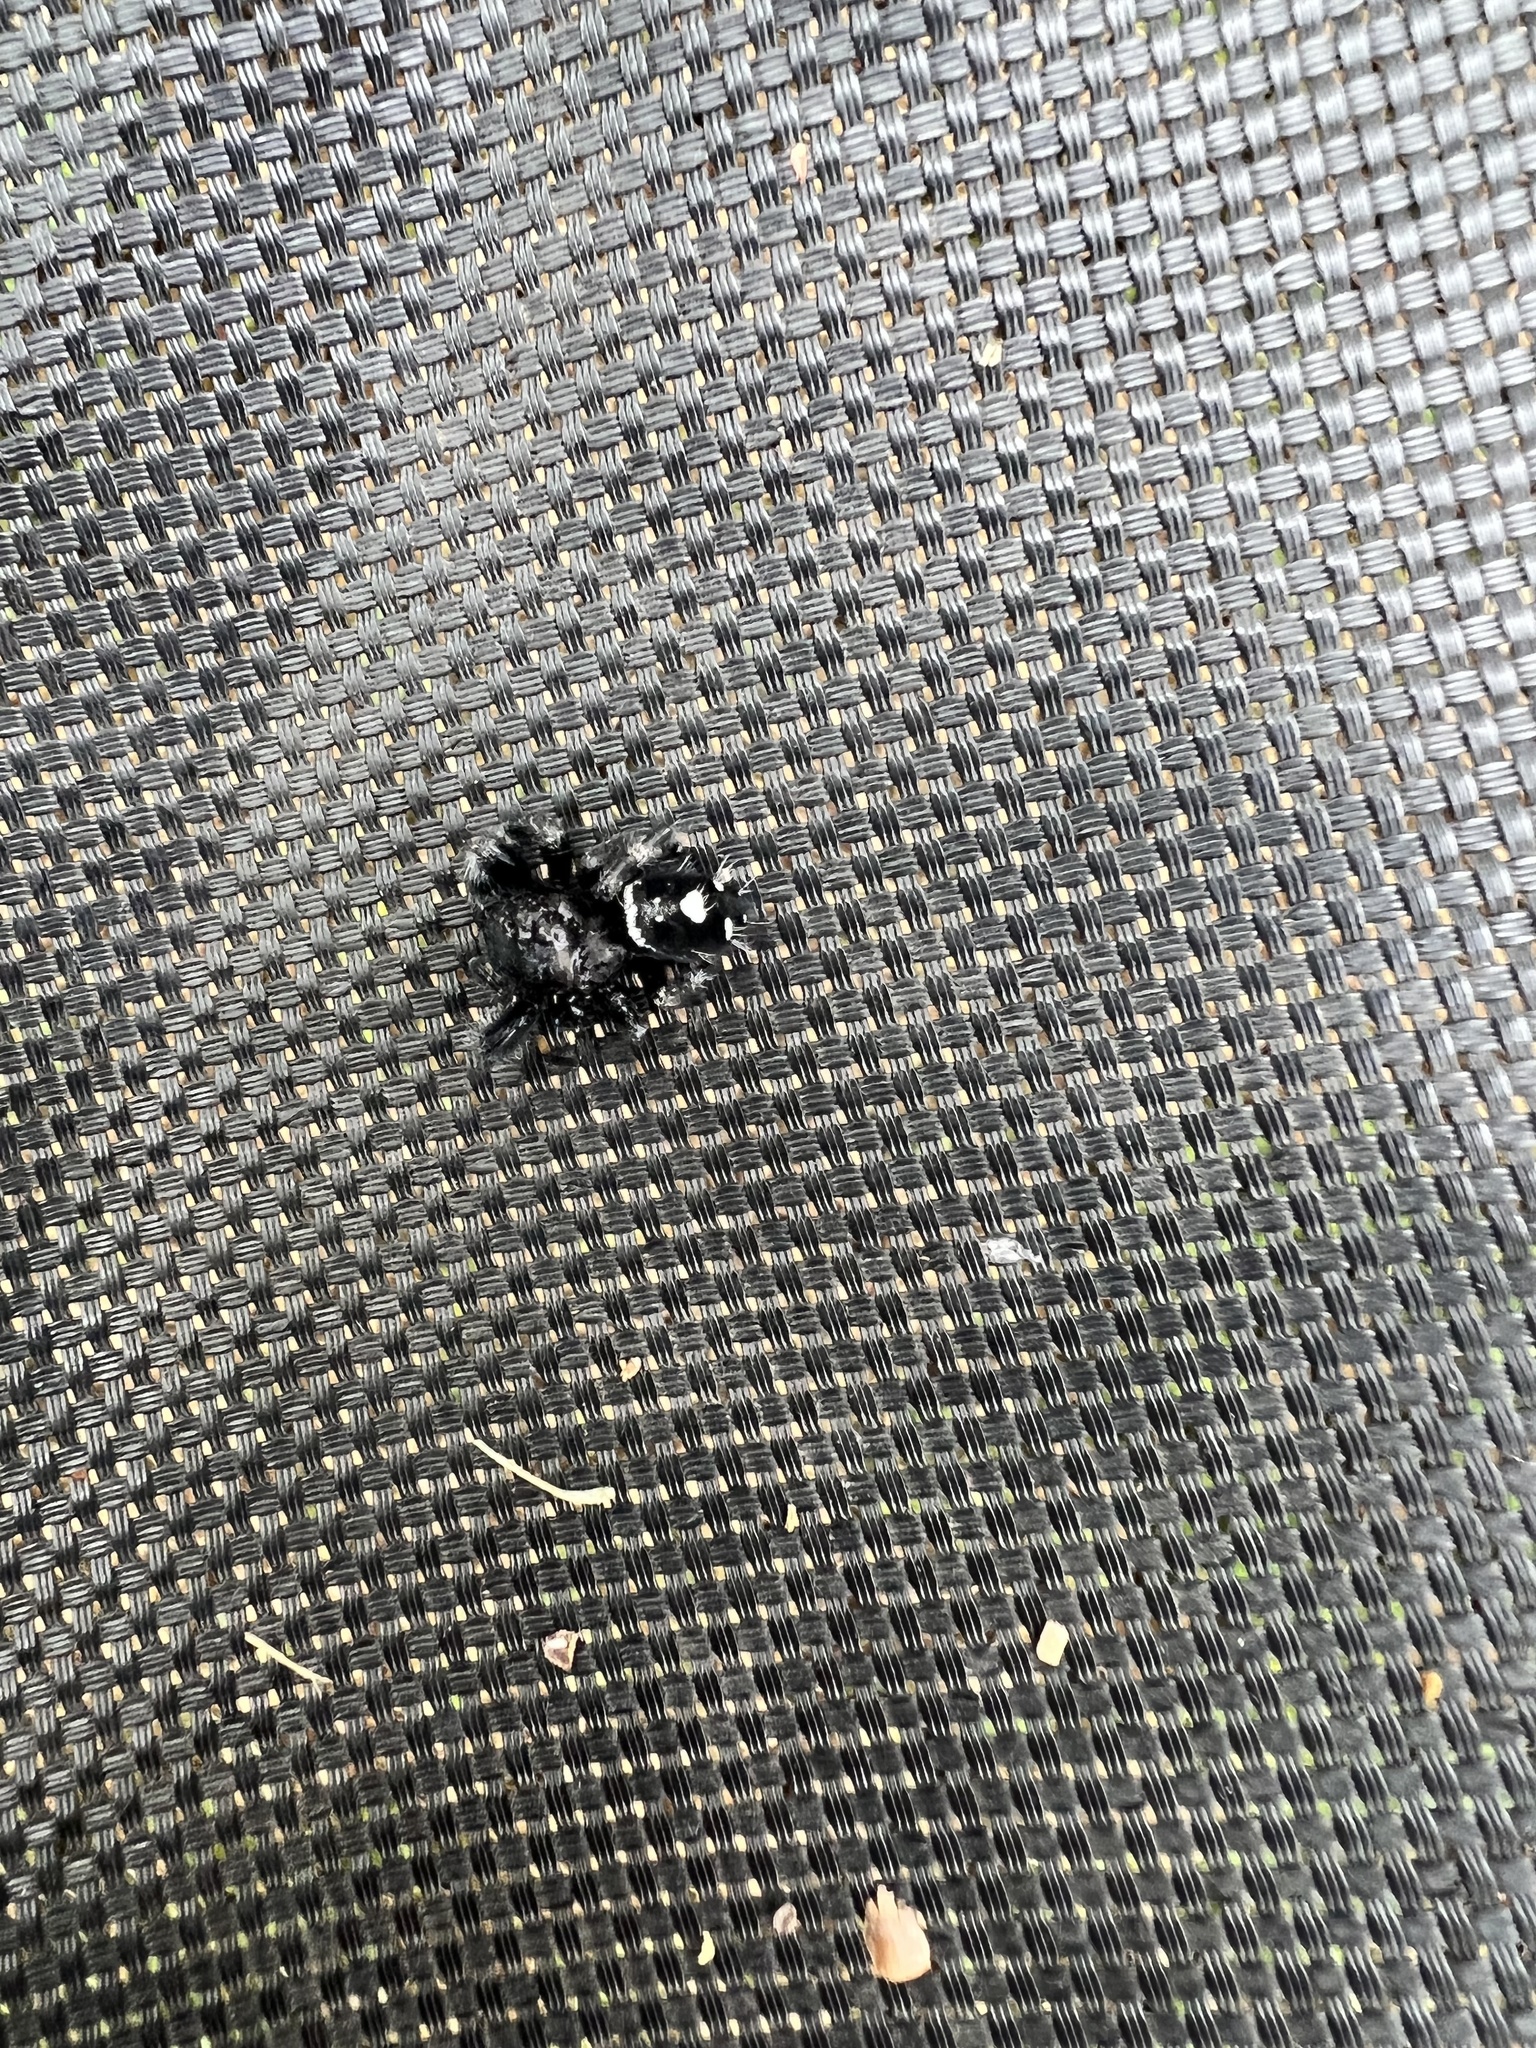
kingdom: Animalia
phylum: Arthropoda
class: Arachnida
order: Araneae
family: Salticidae
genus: Phidippus
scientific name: Phidippus audax
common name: Bold jumper
